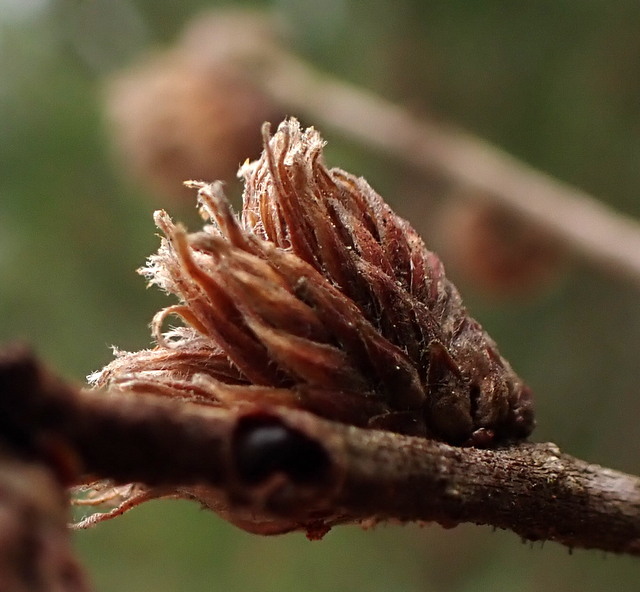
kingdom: Animalia
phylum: Arthropoda
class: Insecta
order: Hymenoptera
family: Cynipidae
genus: Andricus
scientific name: Andricus quercusfoliatus
